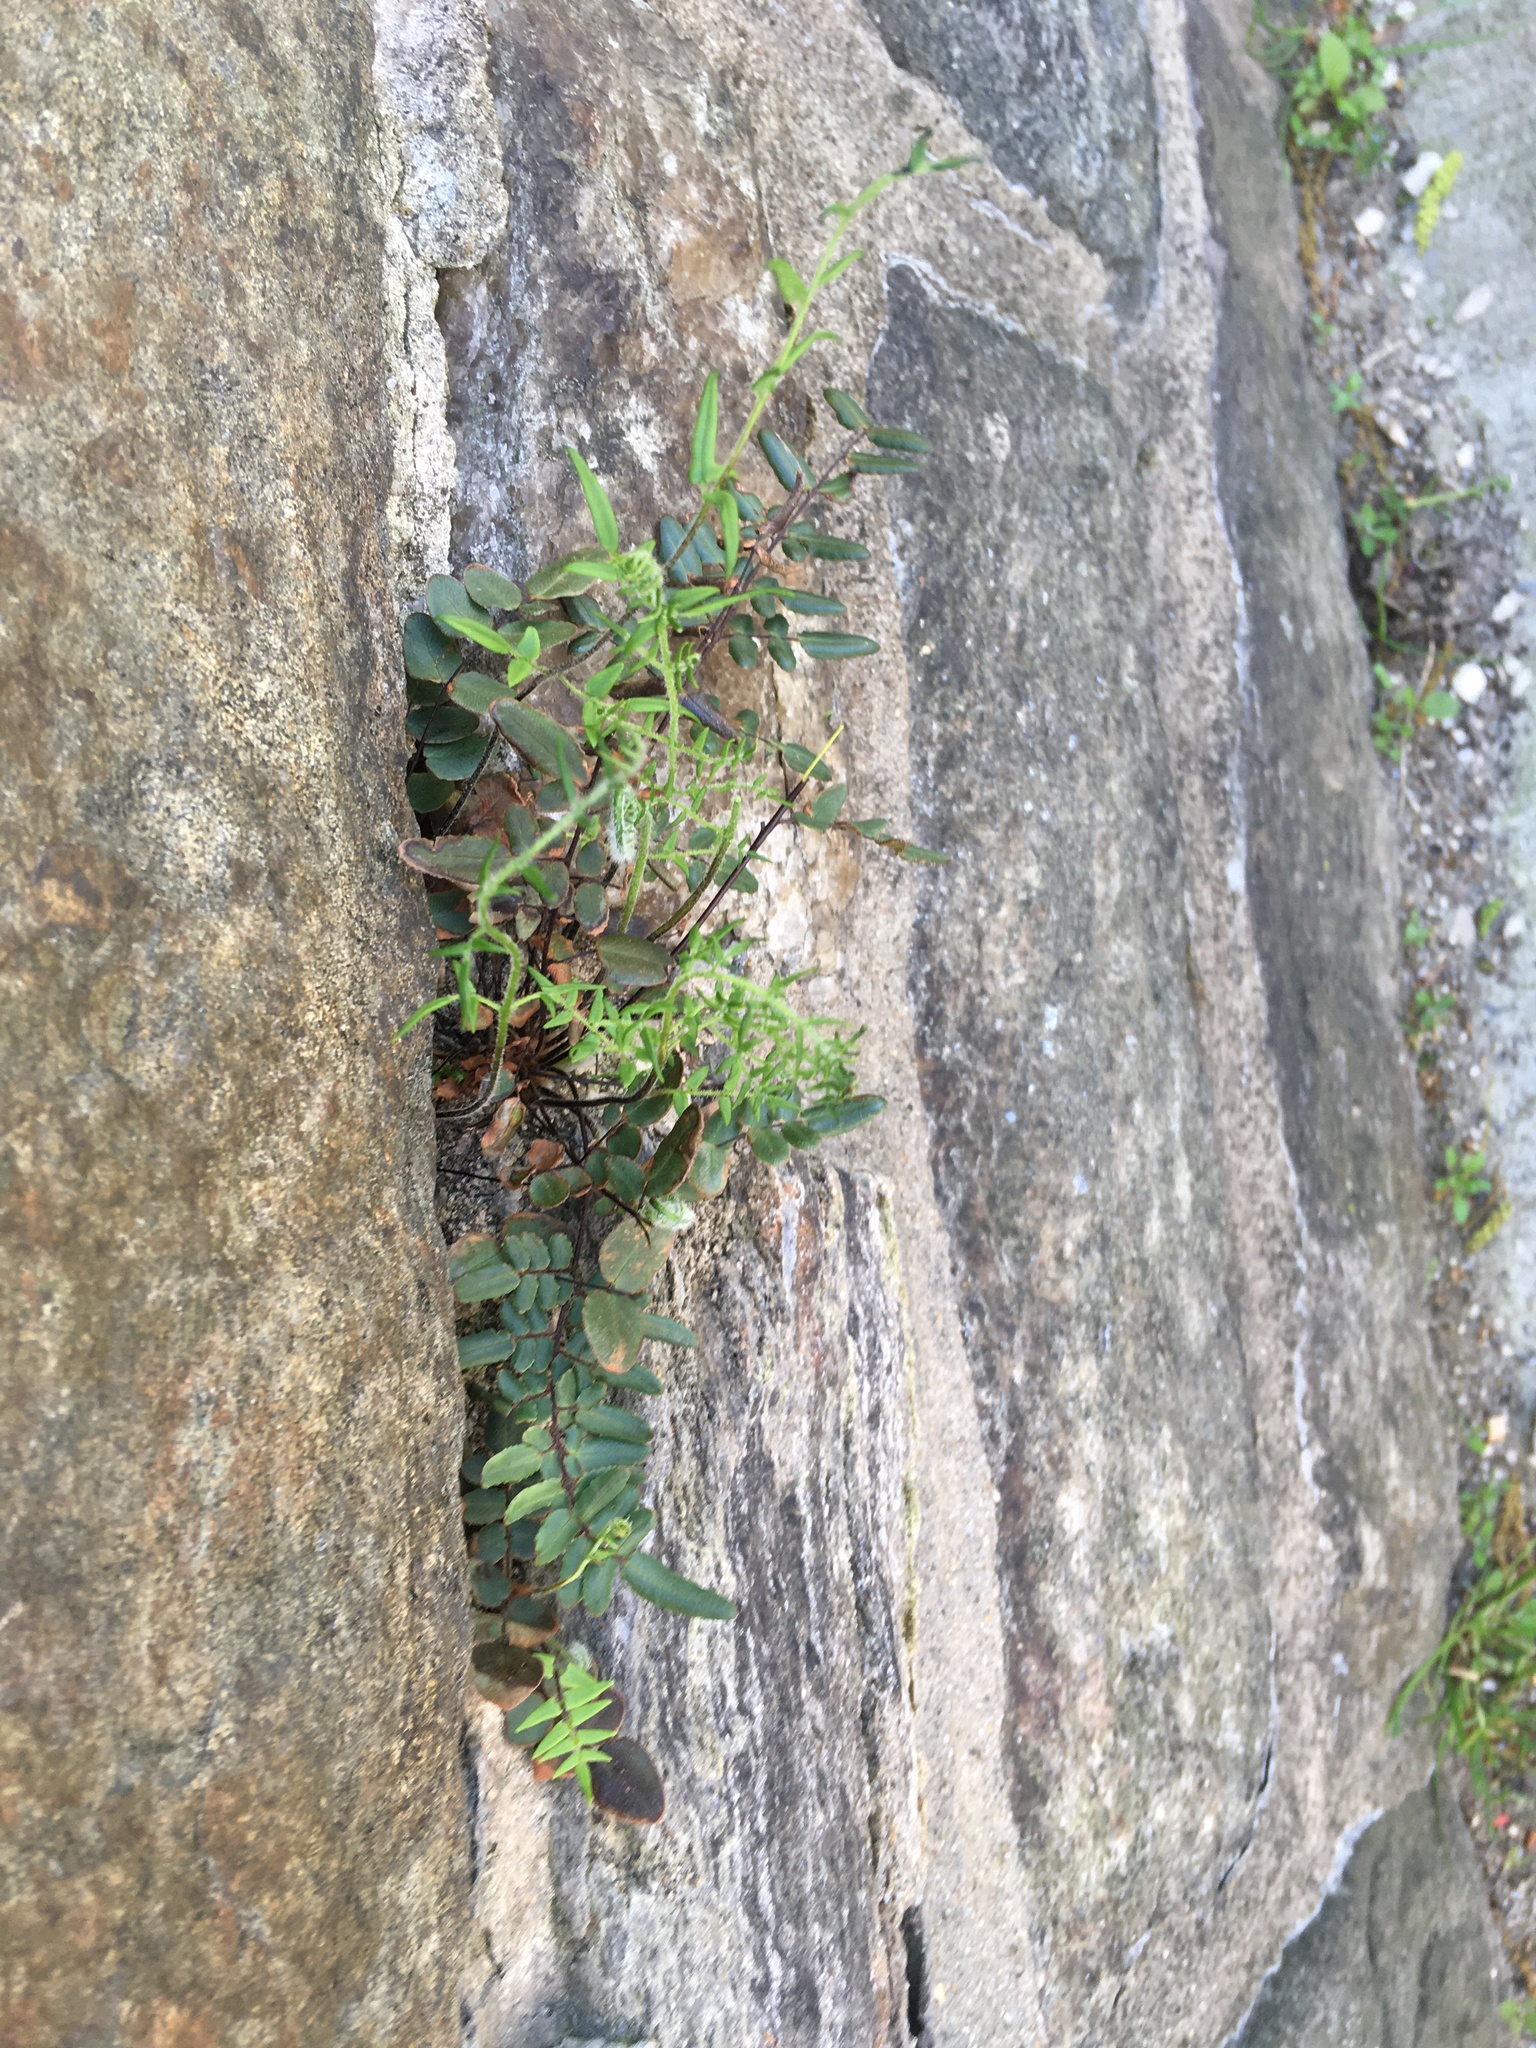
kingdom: Plantae
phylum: Tracheophyta
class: Polypodiopsida
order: Polypodiales
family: Pteridaceae
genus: Pellaea
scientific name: Pellaea atropurpurea
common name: Hairy cliffbrake
